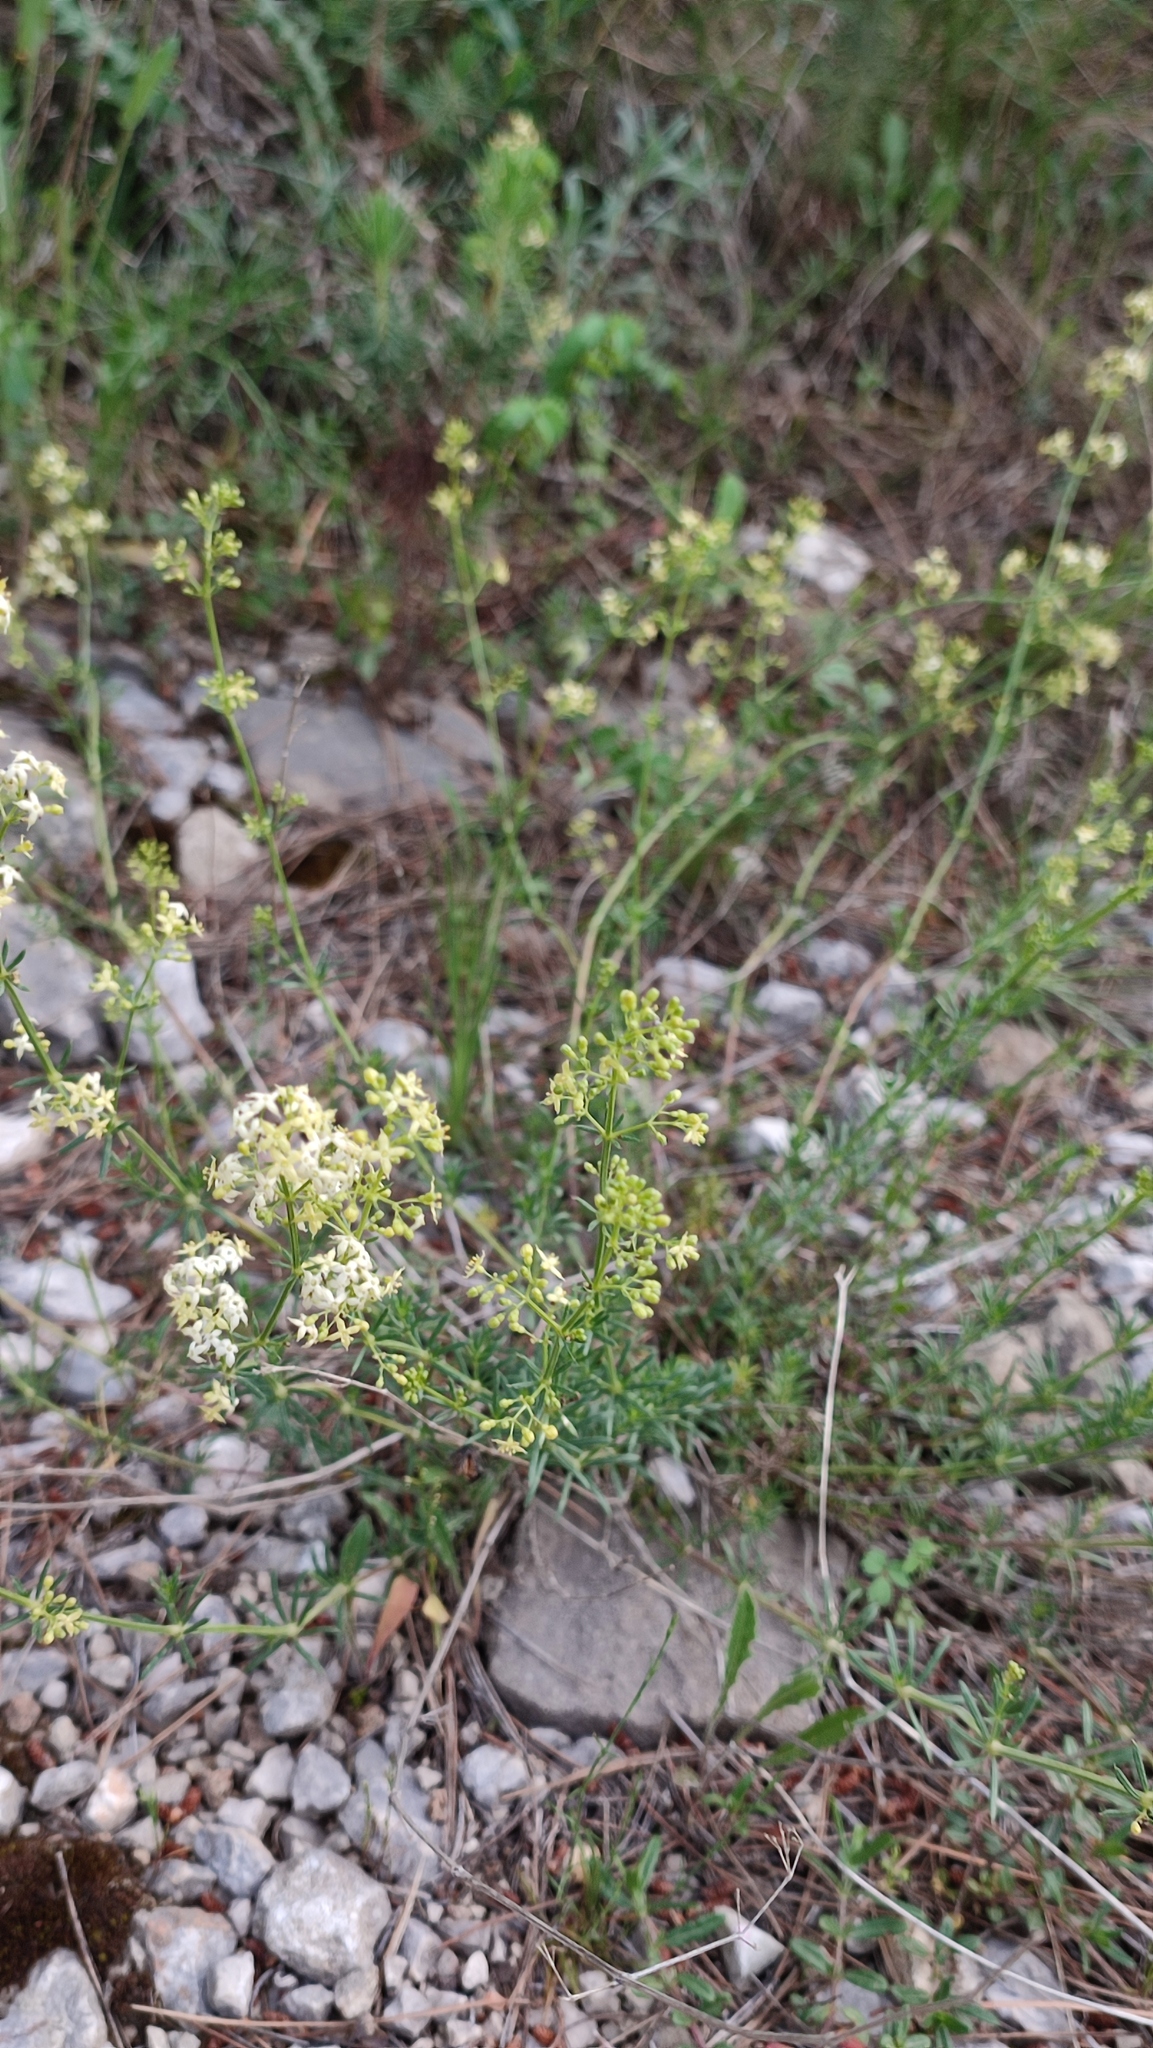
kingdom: Plantae
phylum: Tracheophyta
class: Magnoliopsida
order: Gentianales
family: Rubiaceae
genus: Galium
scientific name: Galium lucidum
